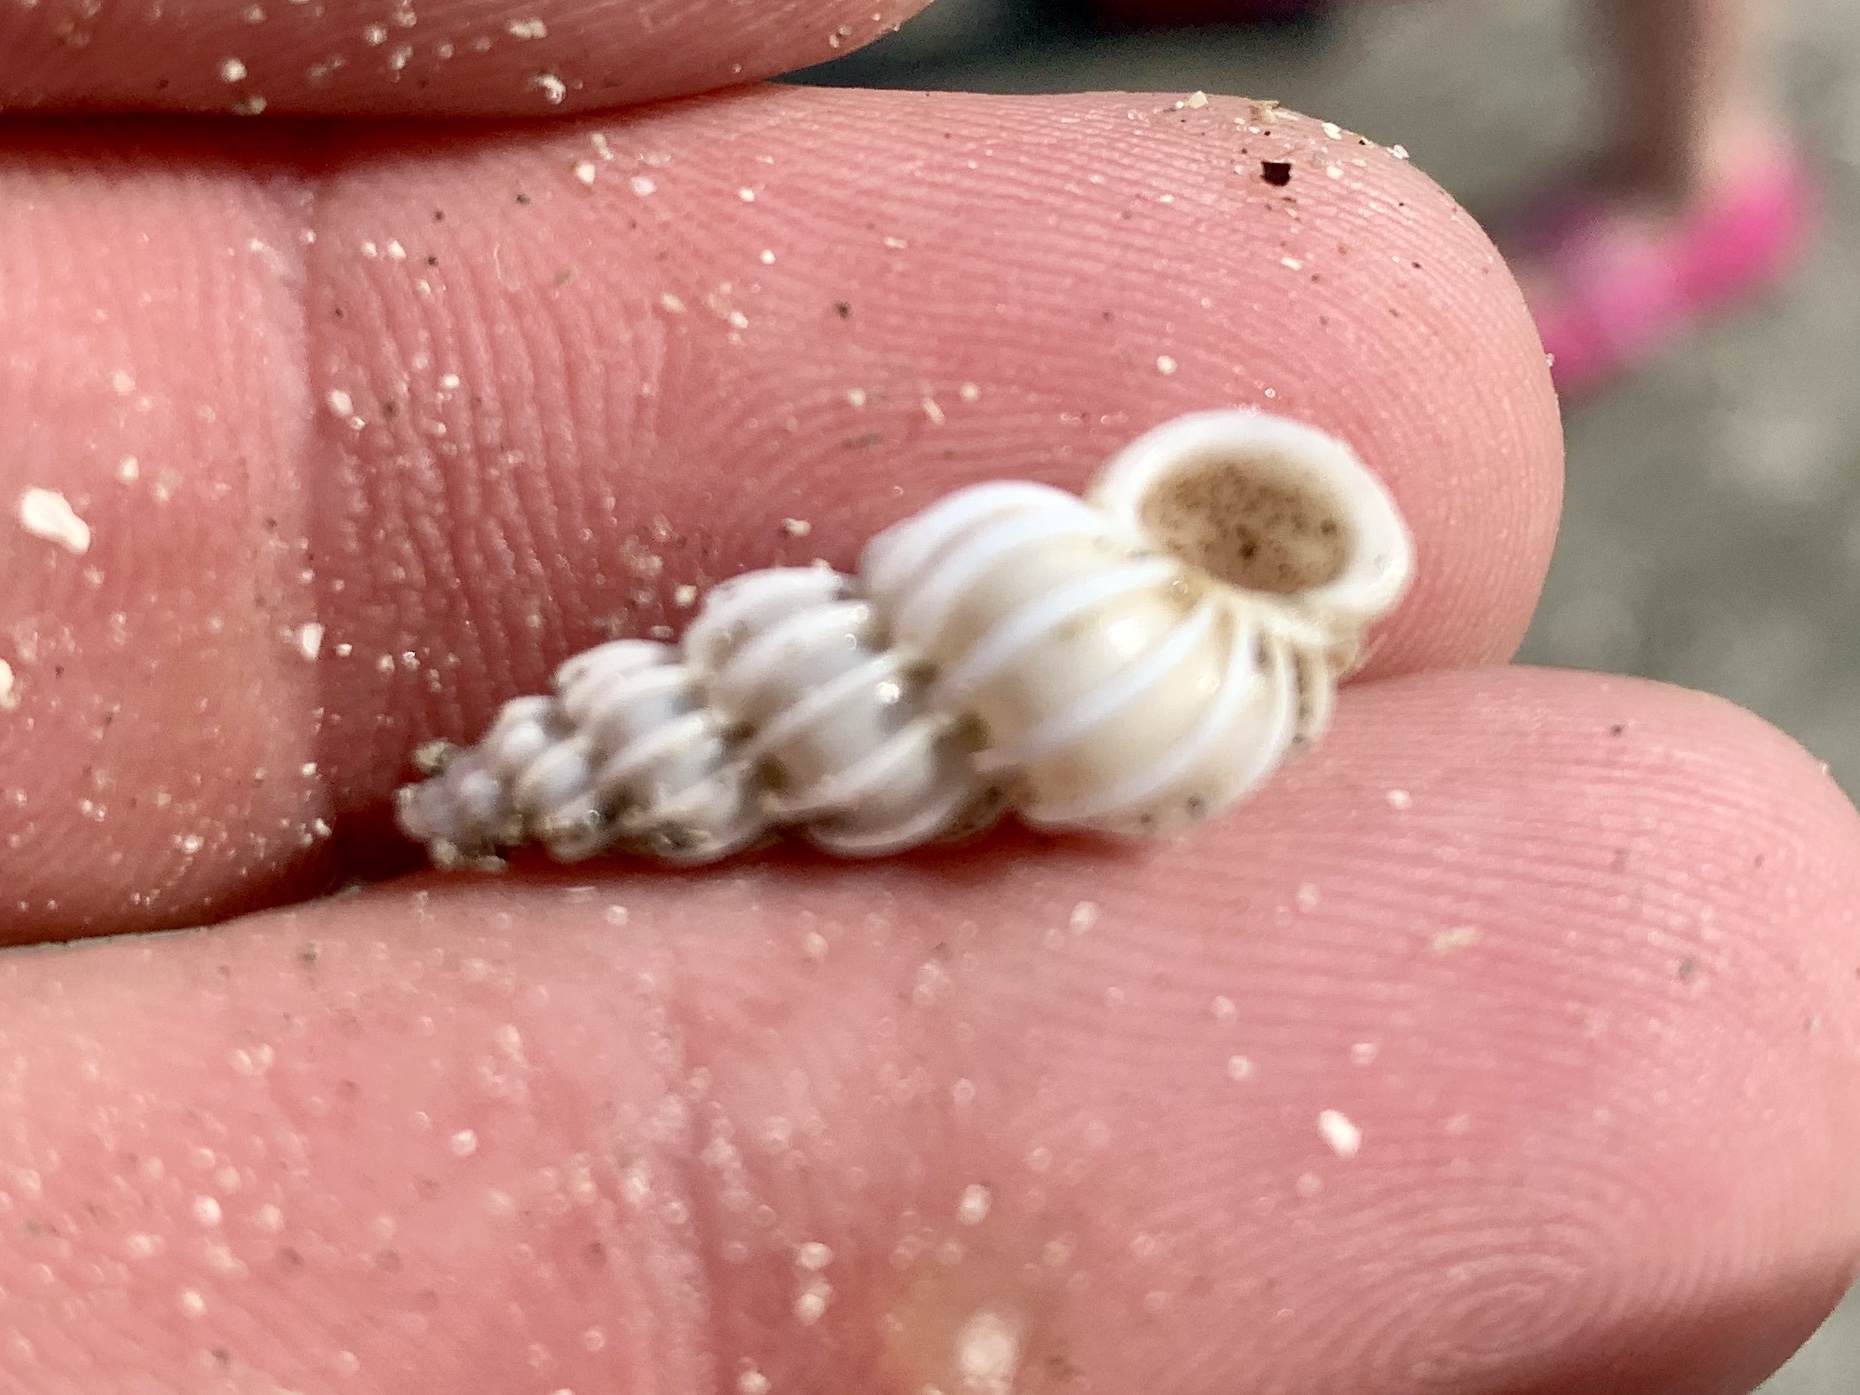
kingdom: Animalia
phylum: Mollusca
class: Gastropoda
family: Epitoniidae
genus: Epitonium
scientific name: Epitonium humphreysii
